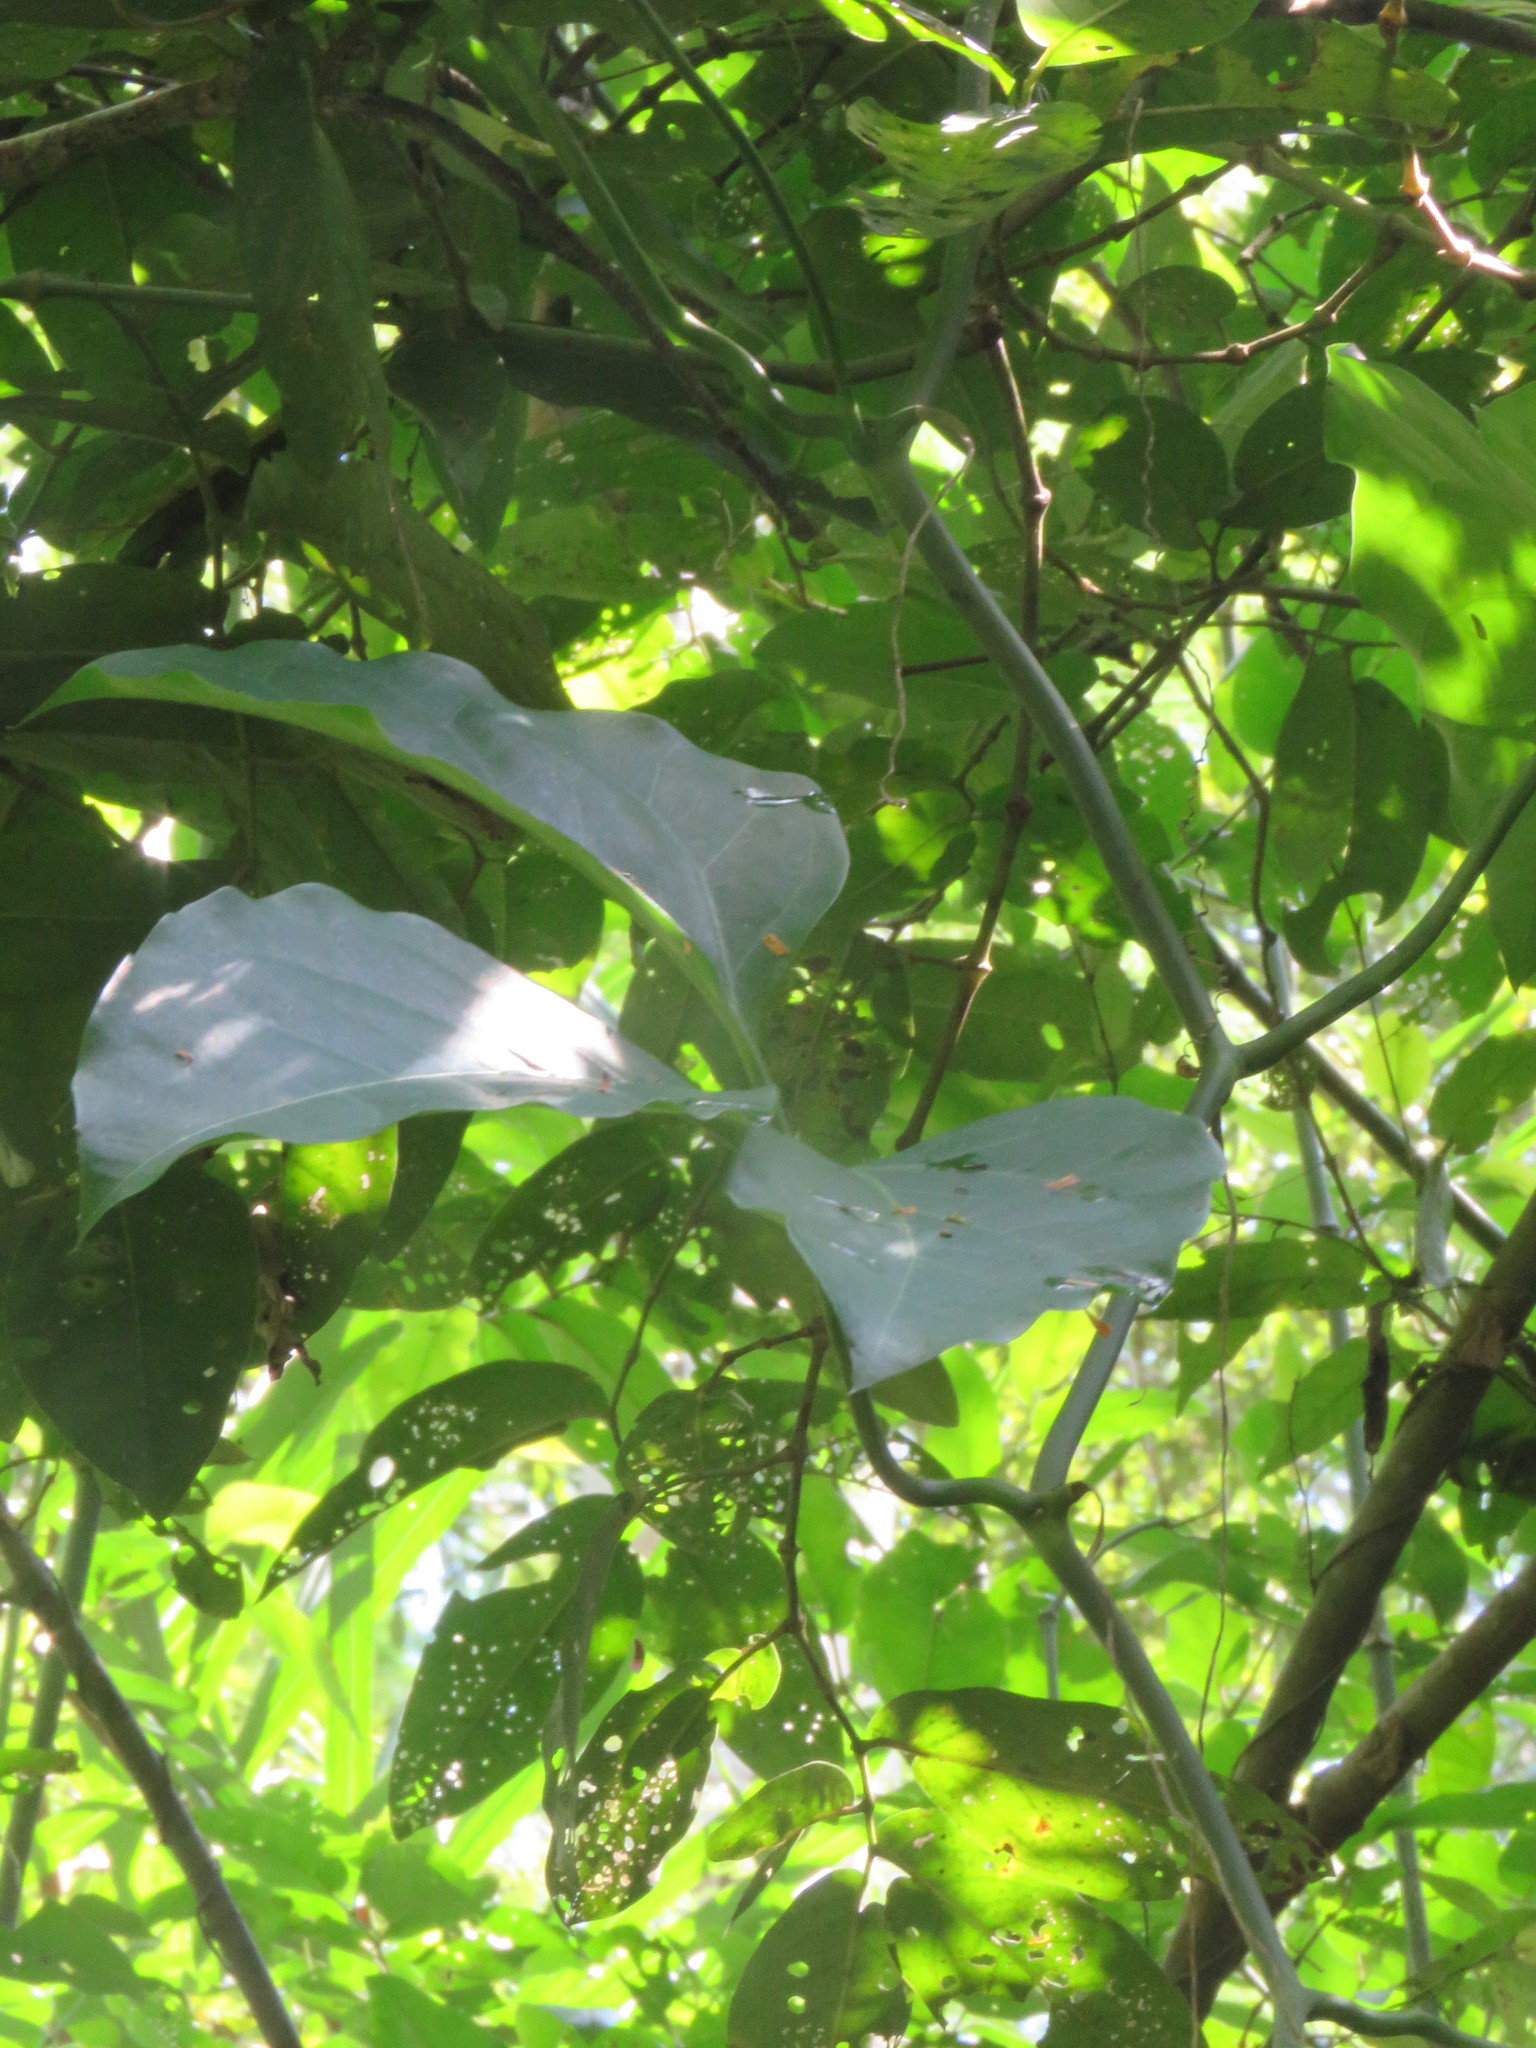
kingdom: Plantae
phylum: Tracheophyta
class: Magnoliopsida
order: Cucurbitales
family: Cucurbitaceae
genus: Psiguria
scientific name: Psiguria ternata
